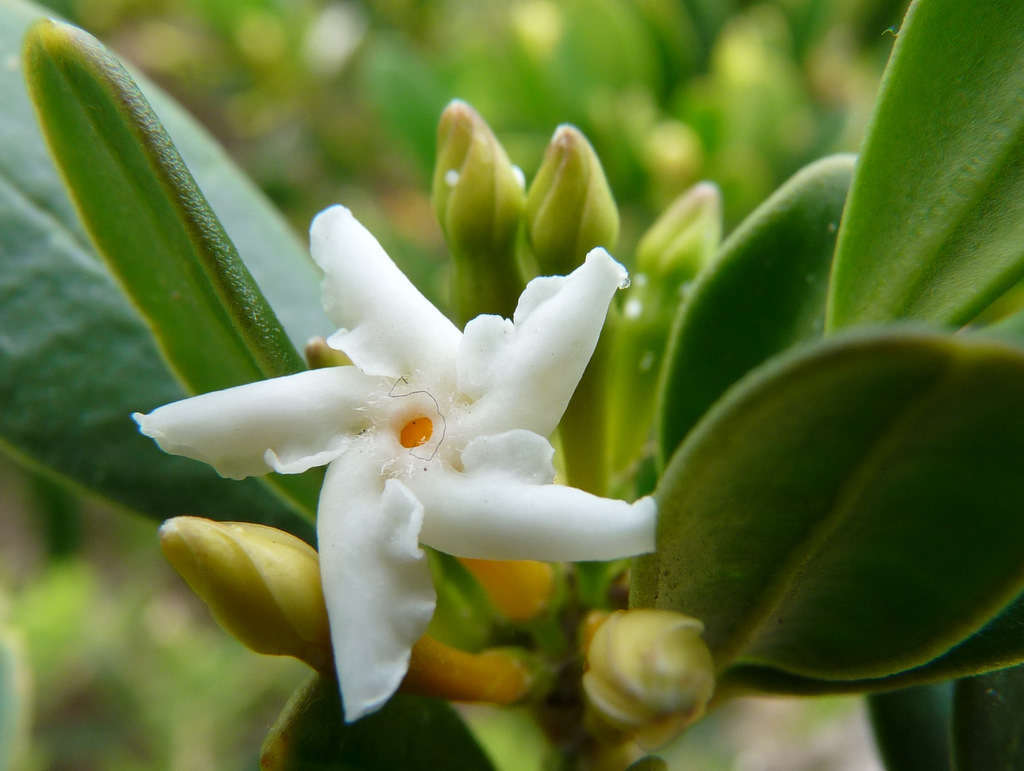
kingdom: Plantae
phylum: Tracheophyta
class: Magnoliopsida
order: Gentianales
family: Apocynaceae
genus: Alyxia
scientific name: Alyxia buxifolia
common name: Dysentery-bush
